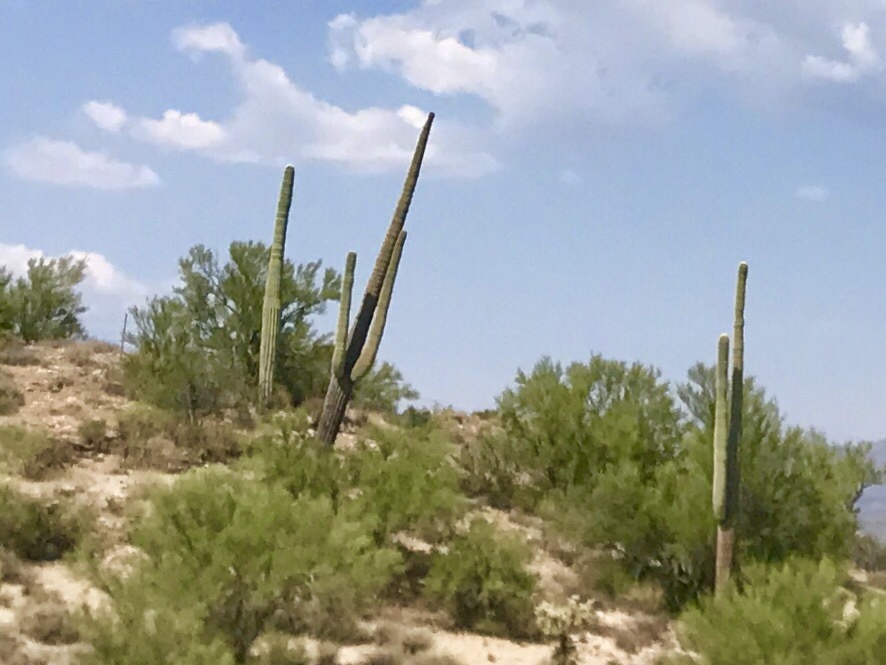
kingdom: Plantae
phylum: Tracheophyta
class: Magnoliopsida
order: Caryophyllales
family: Cactaceae
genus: Carnegiea
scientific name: Carnegiea gigantea
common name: Saguaro
